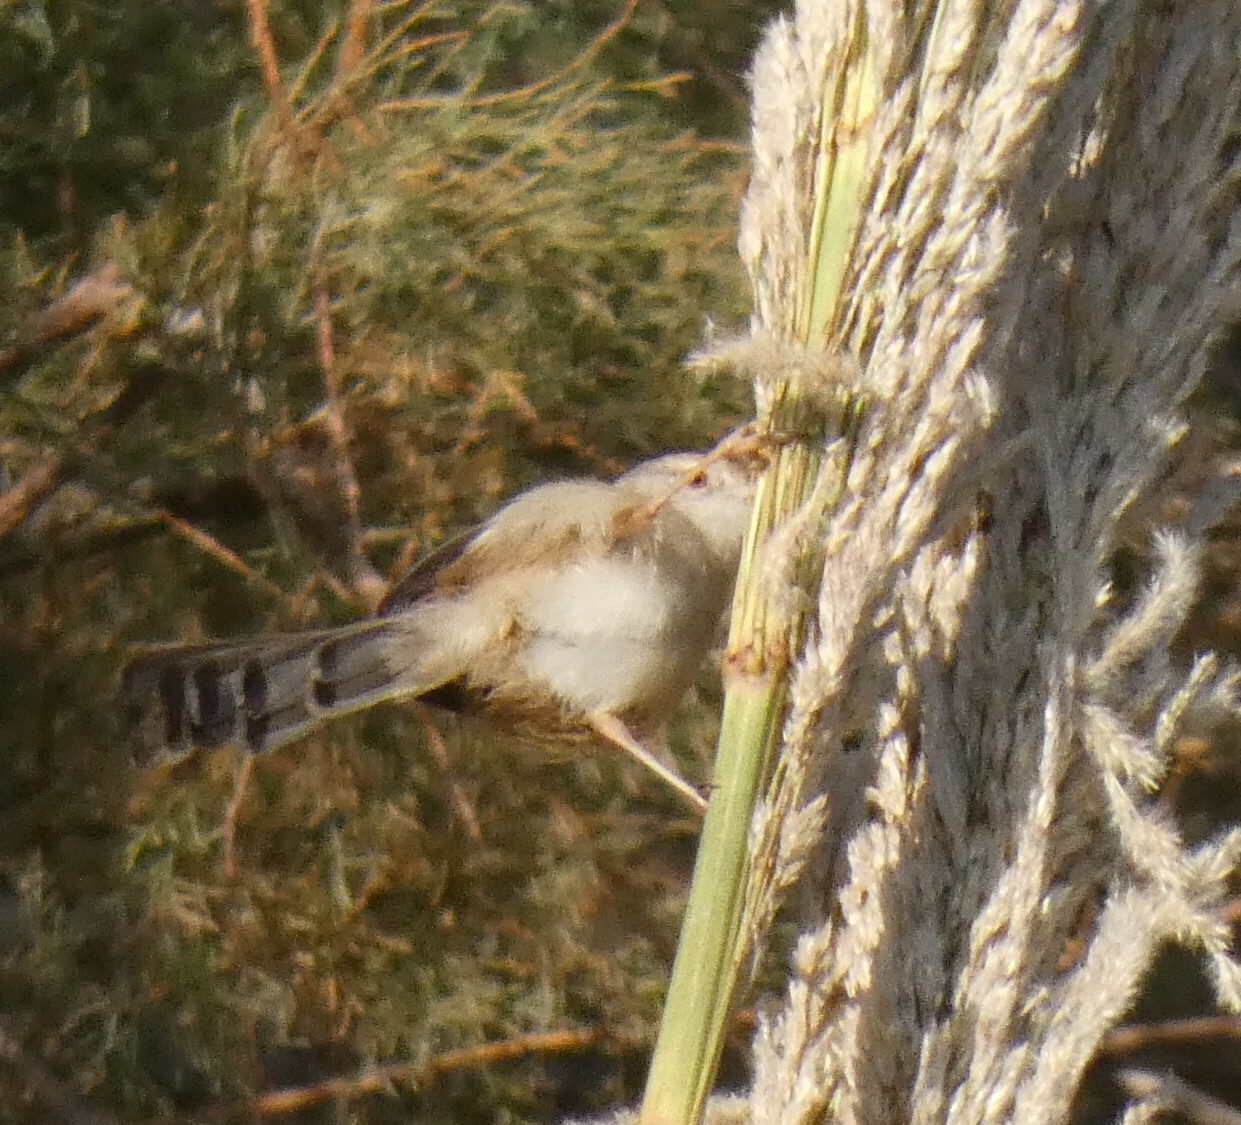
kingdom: Animalia
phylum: Chordata
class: Aves
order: Passeriformes
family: Cisticolidae
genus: Prinia
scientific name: Prinia gracilis
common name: Graceful prinia
